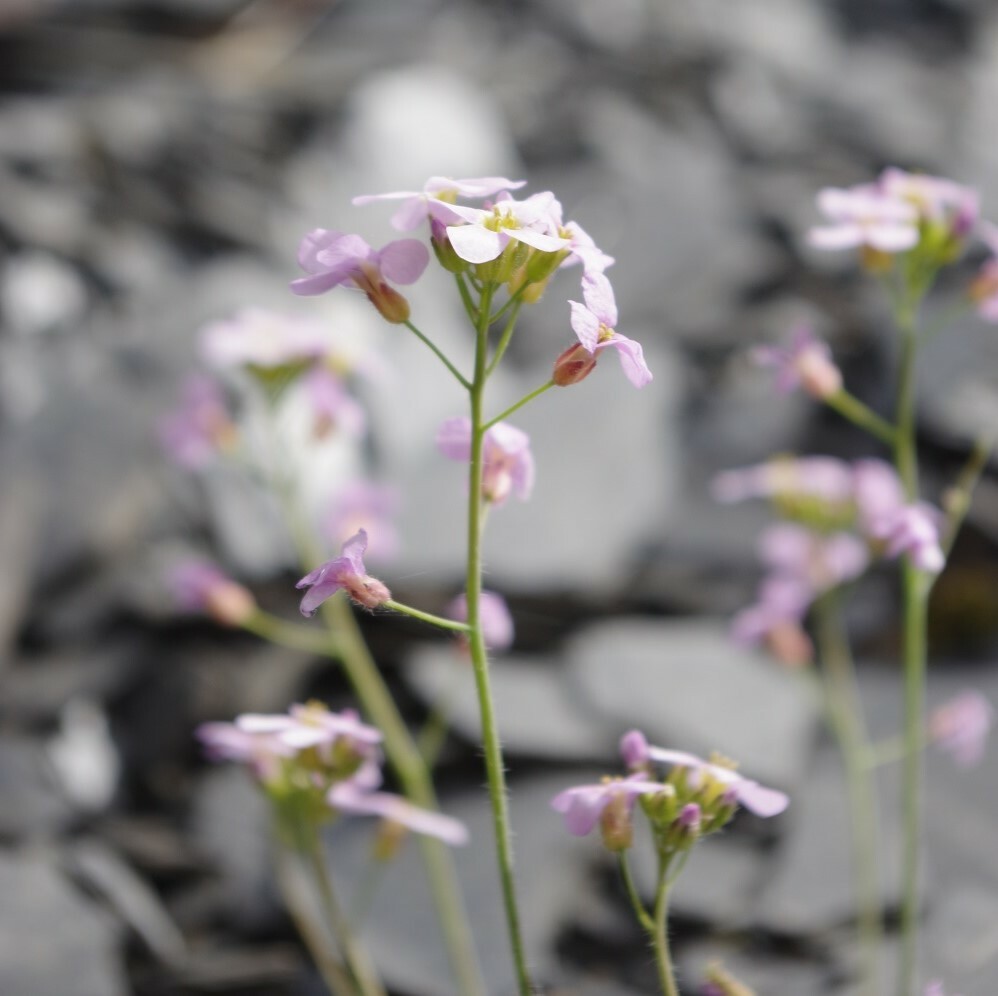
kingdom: Plantae
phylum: Tracheophyta
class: Magnoliopsida
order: Brassicales
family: Brassicaceae
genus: Arabidopsis
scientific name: Arabidopsis arenosa
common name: Sand rock-cress
